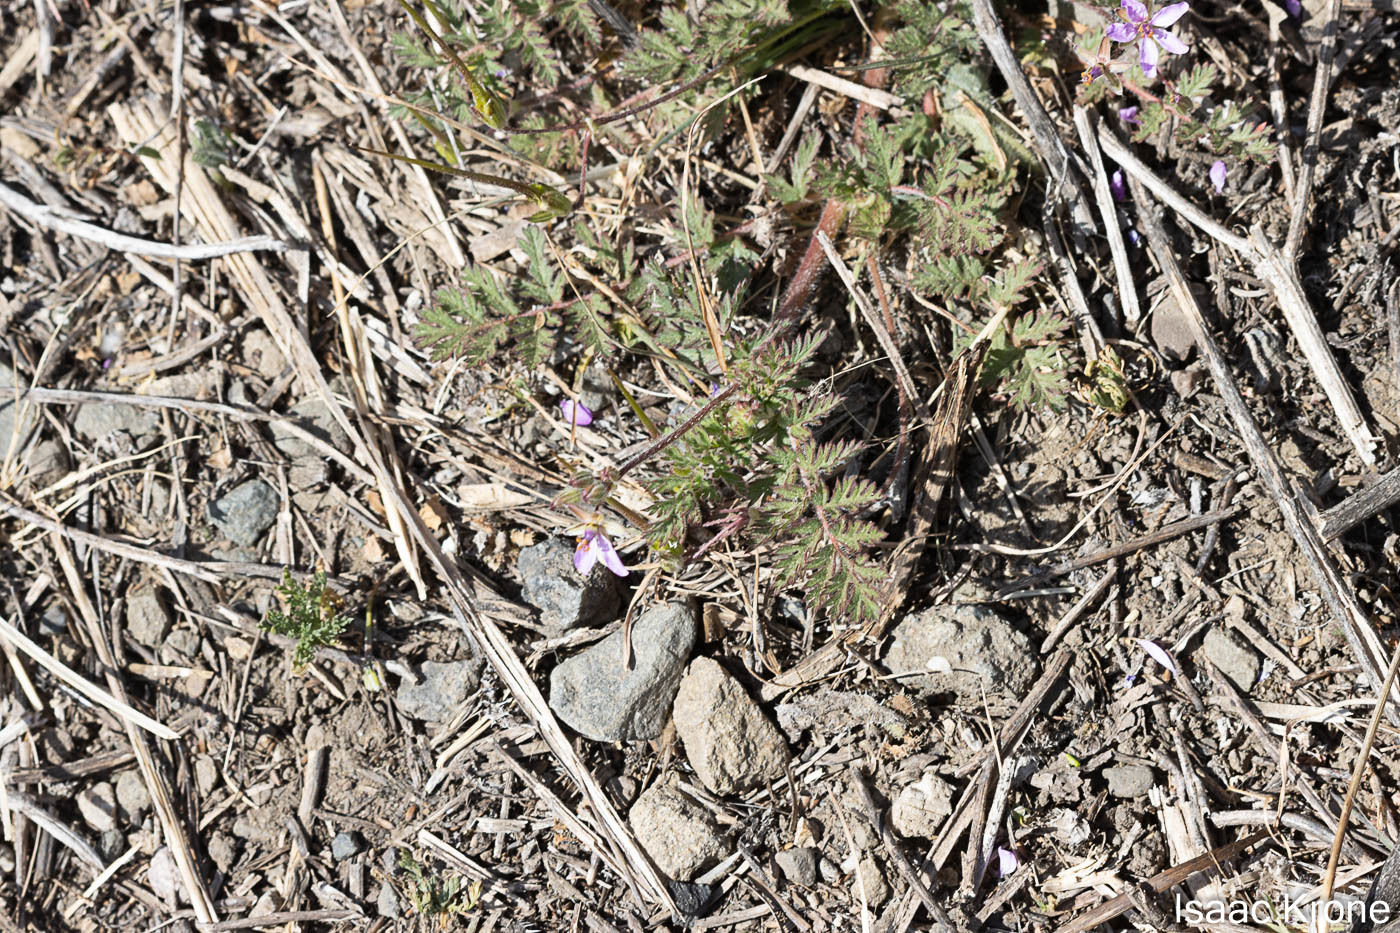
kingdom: Plantae
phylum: Tracheophyta
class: Magnoliopsida
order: Geraniales
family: Geraniaceae
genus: Erodium
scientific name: Erodium cicutarium
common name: Common stork's-bill
